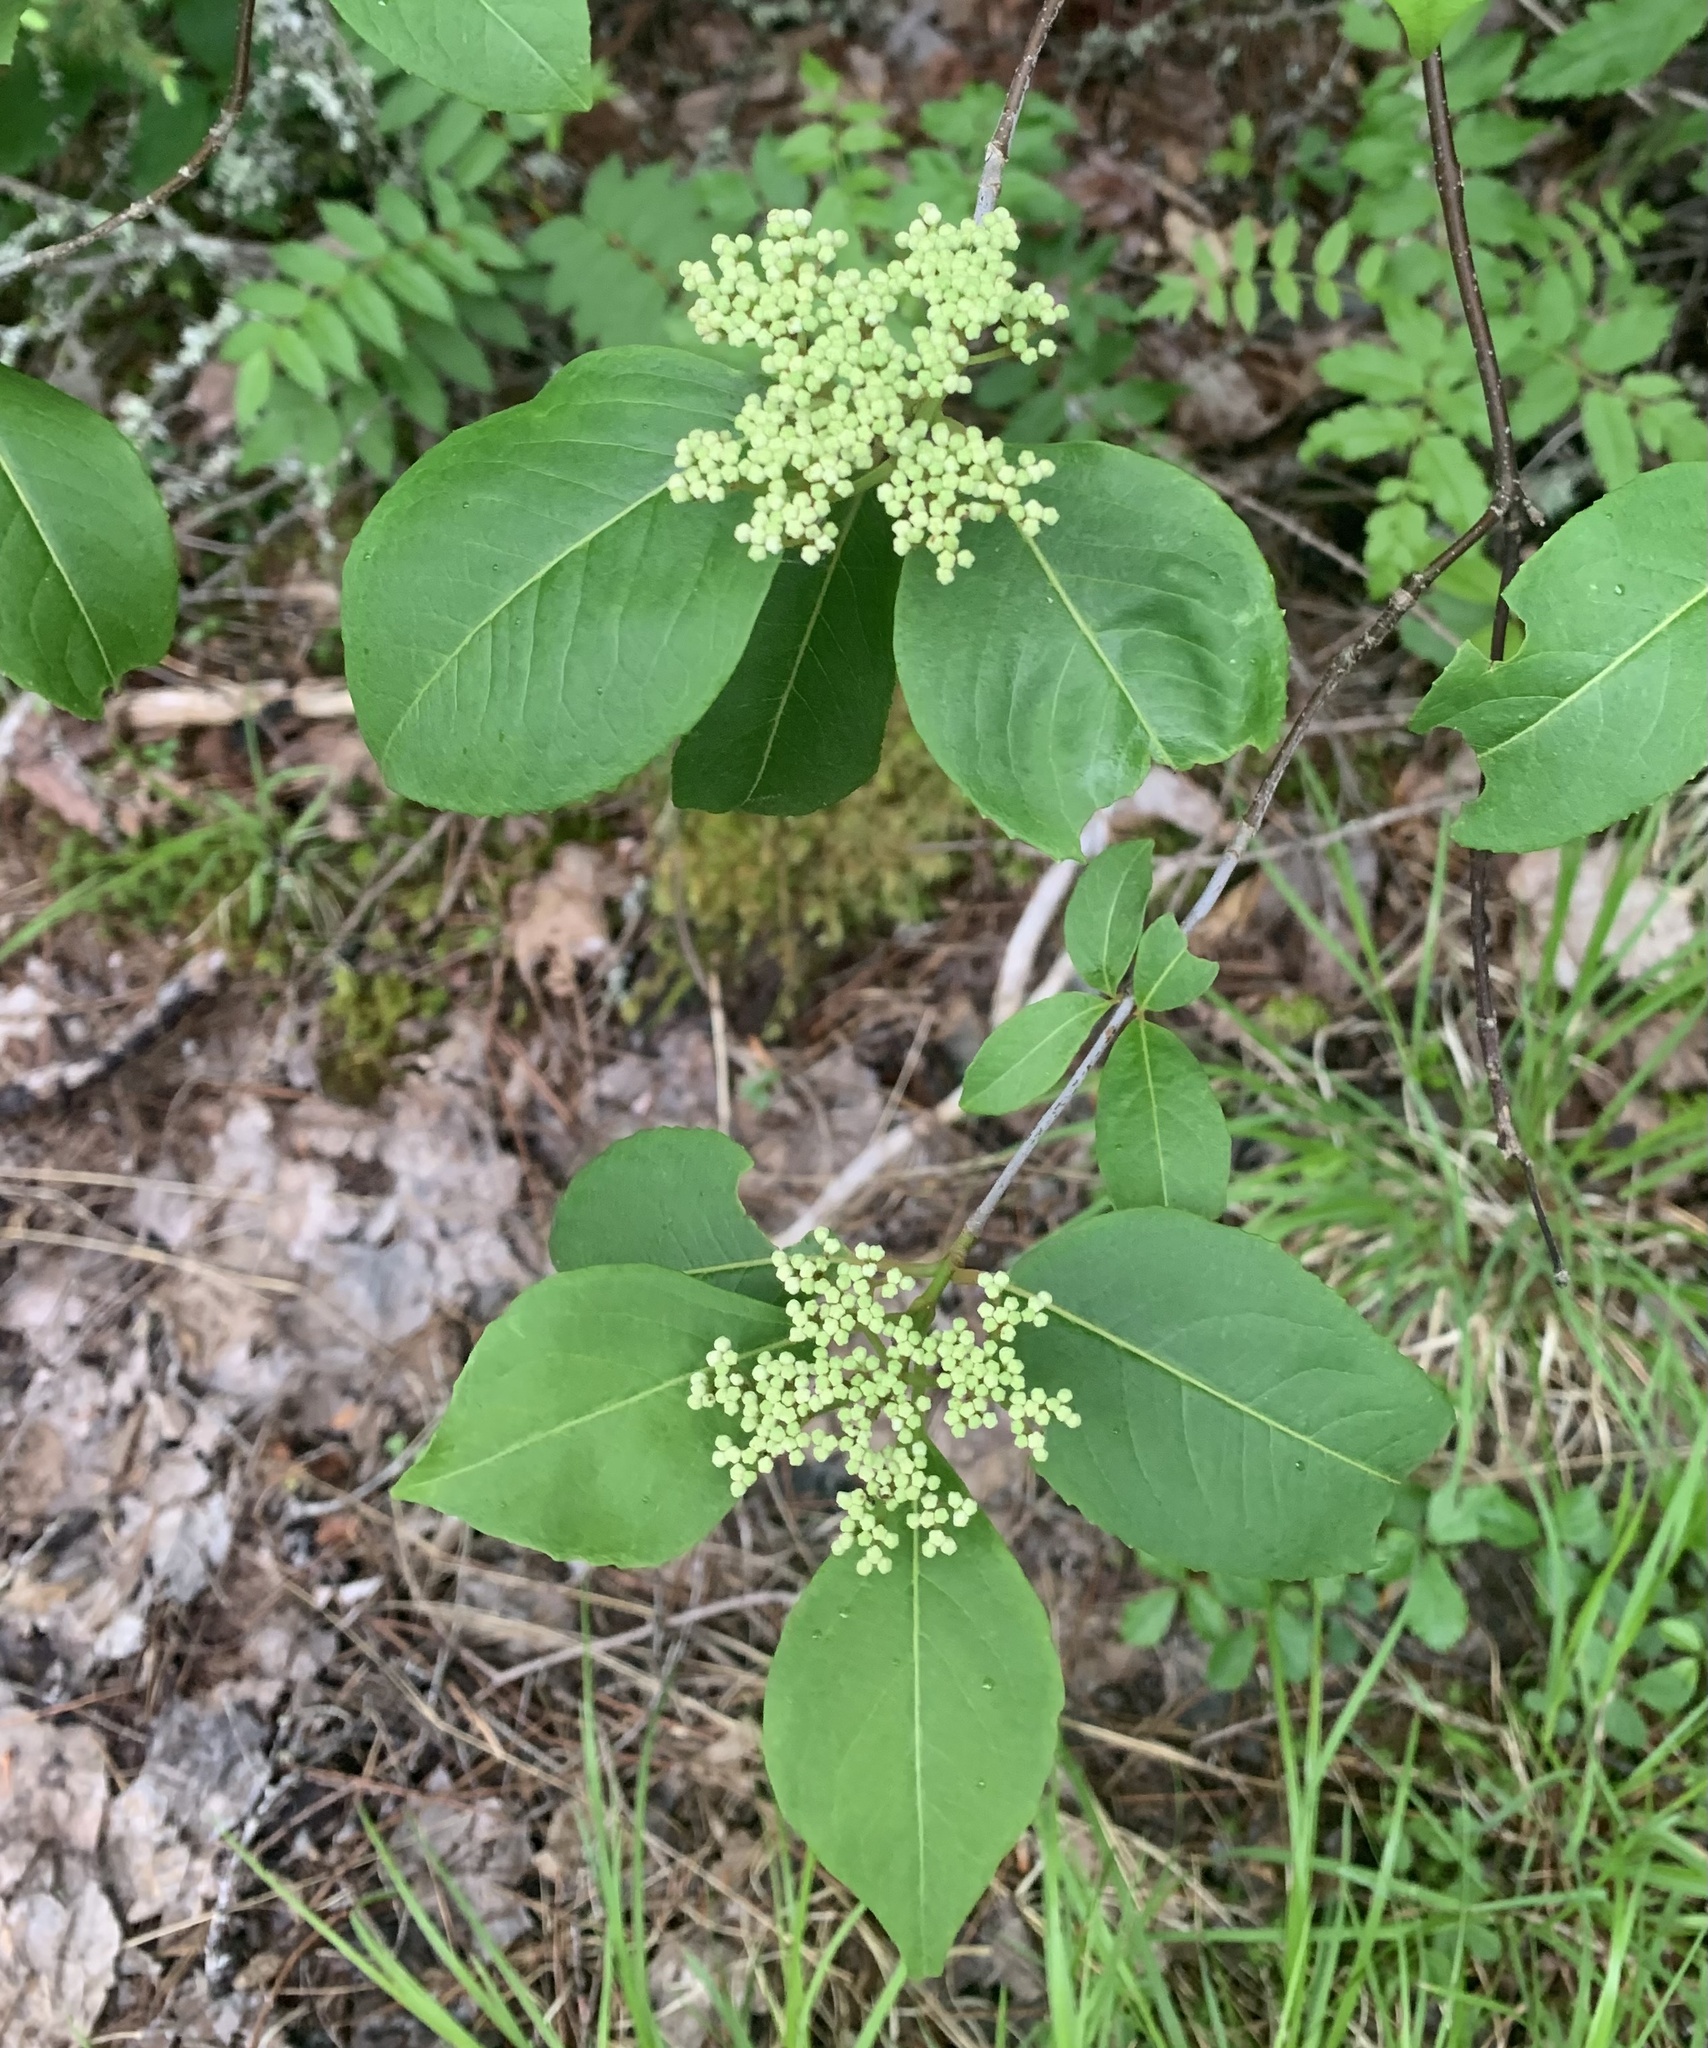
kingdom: Plantae
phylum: Tracheophyta
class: Magnoliopsida
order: Dipsacales
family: Viburnaceae
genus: Viburnum
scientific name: Viburnum cassinoides
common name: Swamp haw
